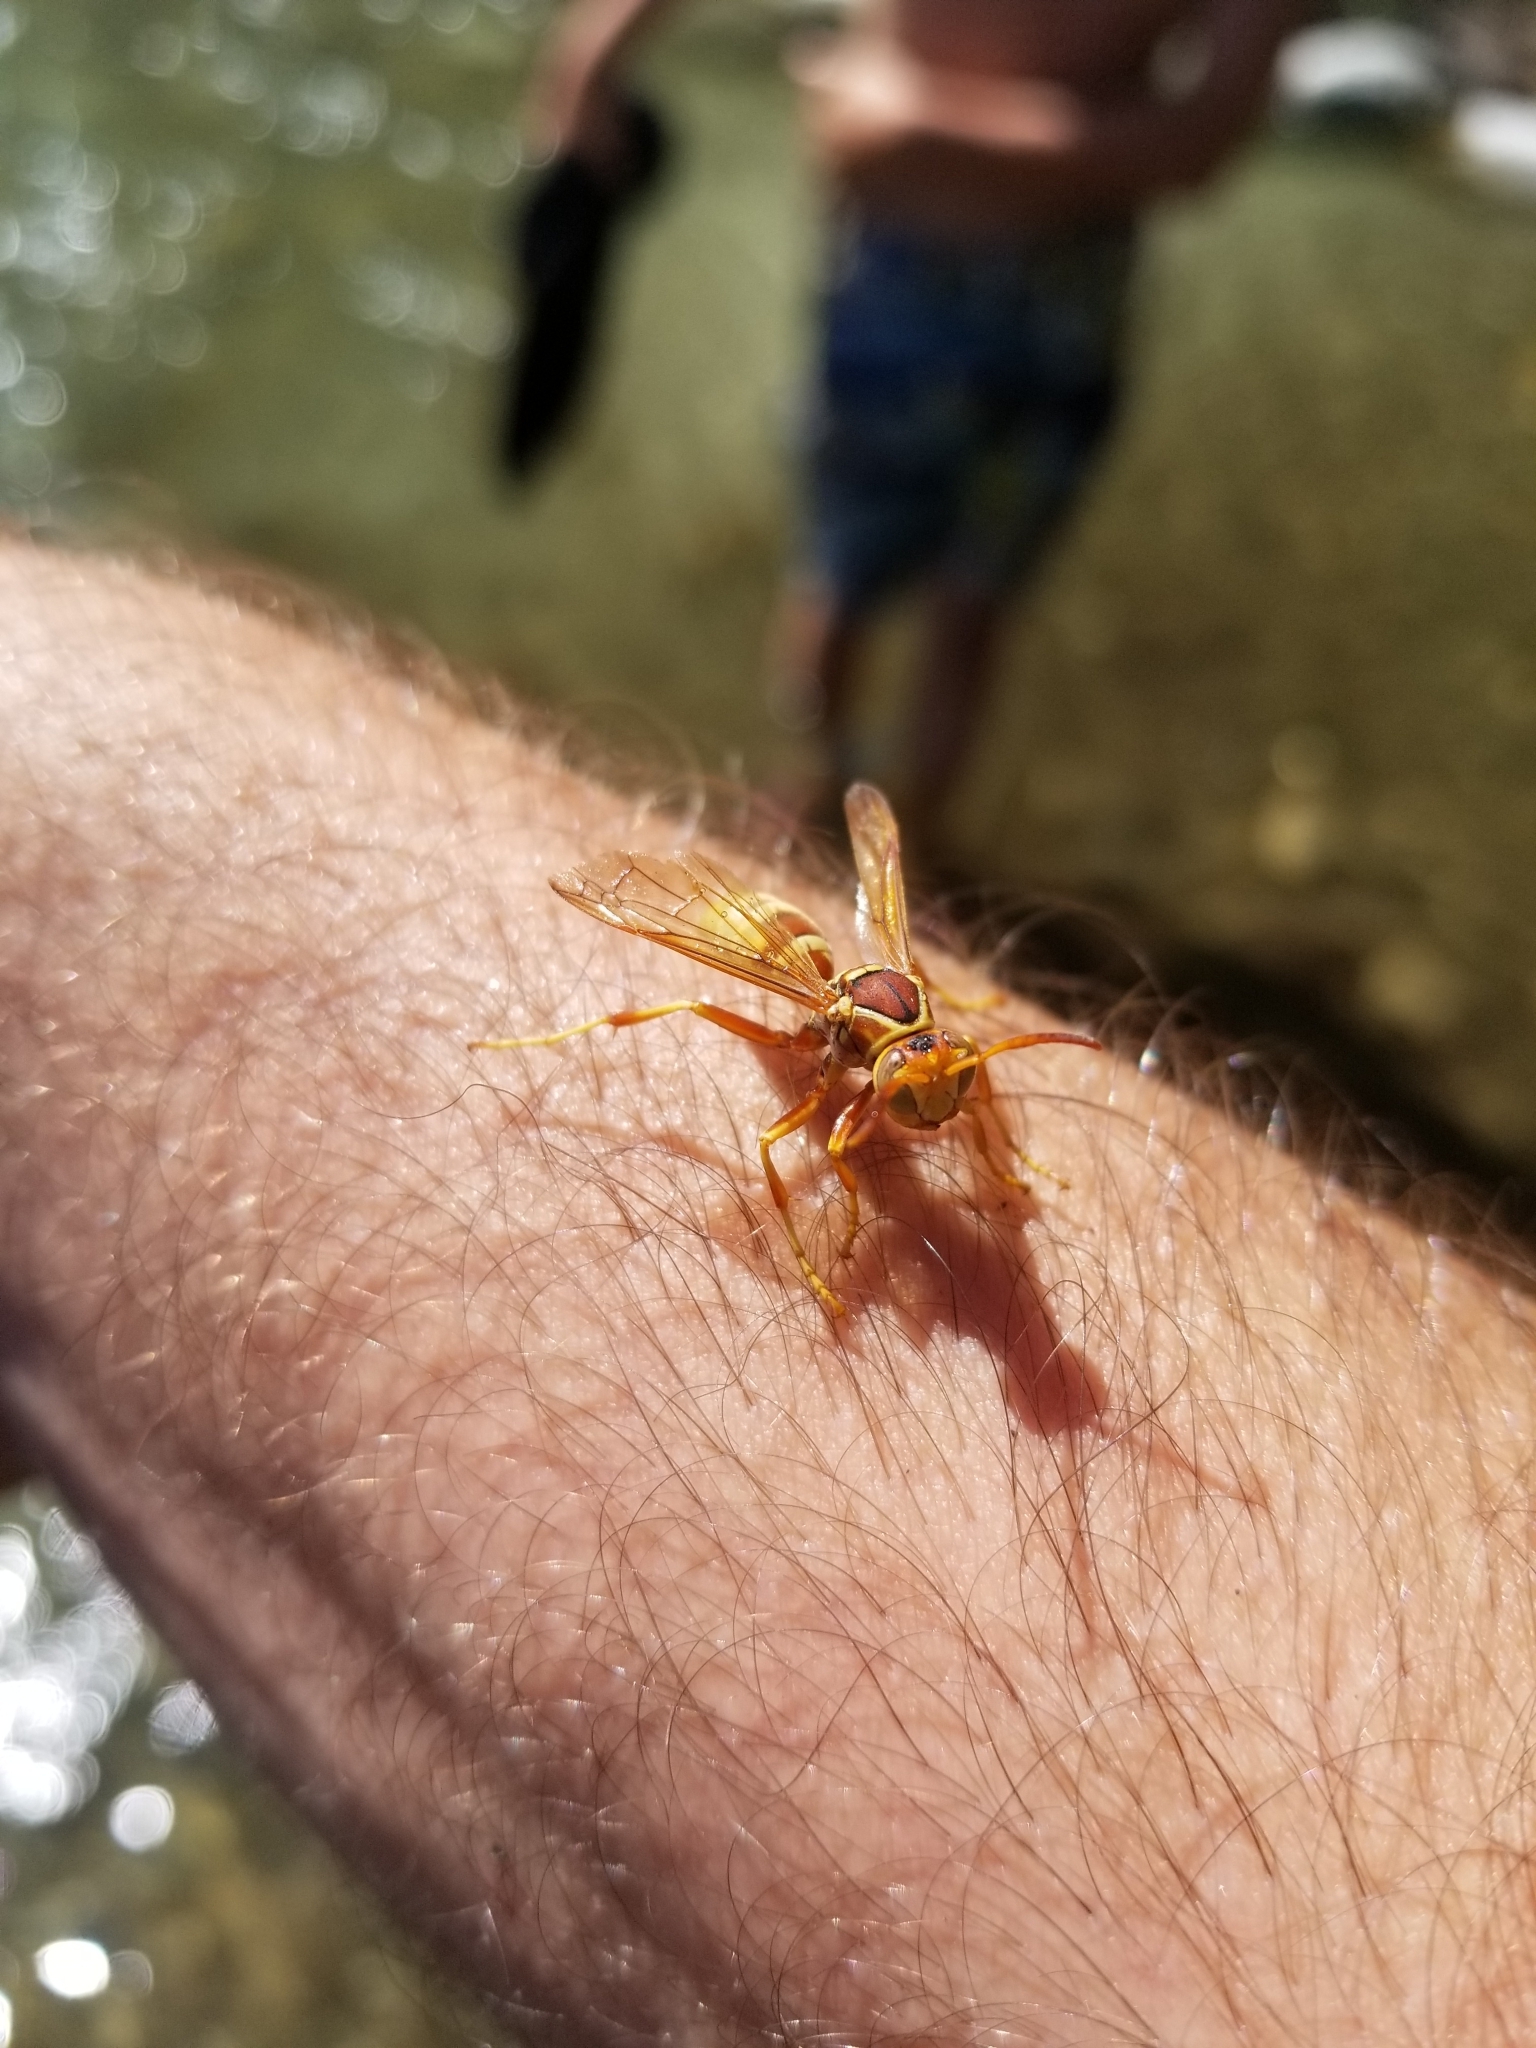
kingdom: Animalia
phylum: Arthropoda
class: Insecta
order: Hymenoptera
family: Eumenidae
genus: Polistes
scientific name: Polistes dorsalis
